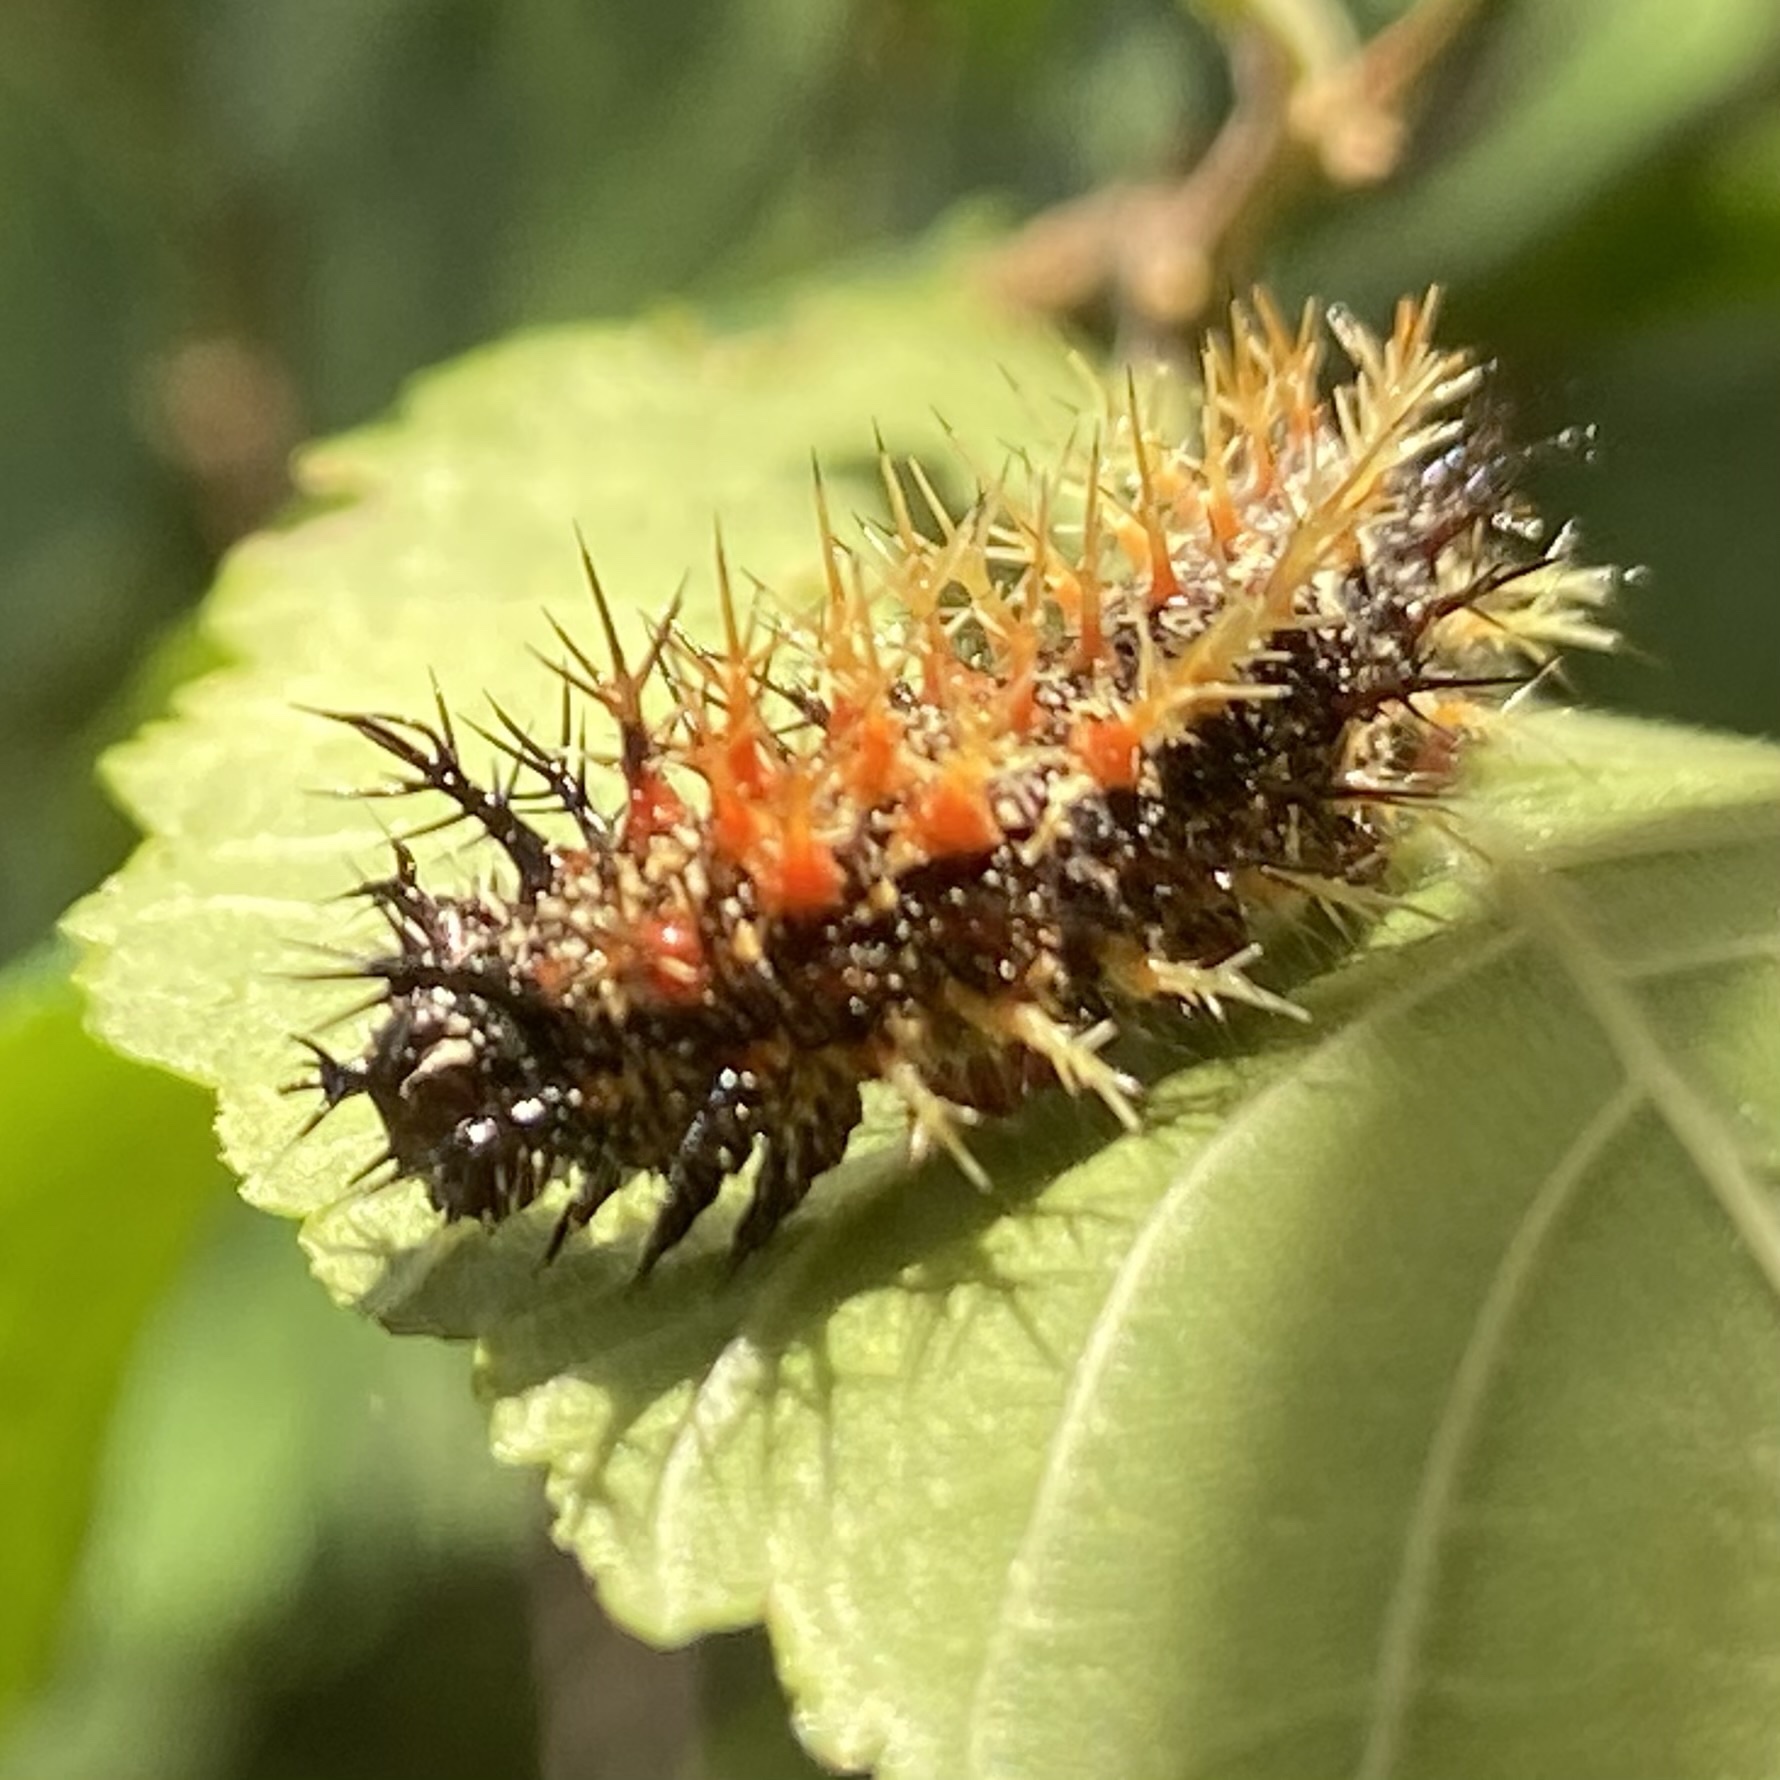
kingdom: Animalia
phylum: Arthropoda
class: Insecta
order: Lepidoptera
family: Nymphalidae
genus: Polygonia
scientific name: Polygonia interrogationis
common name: Question mark
